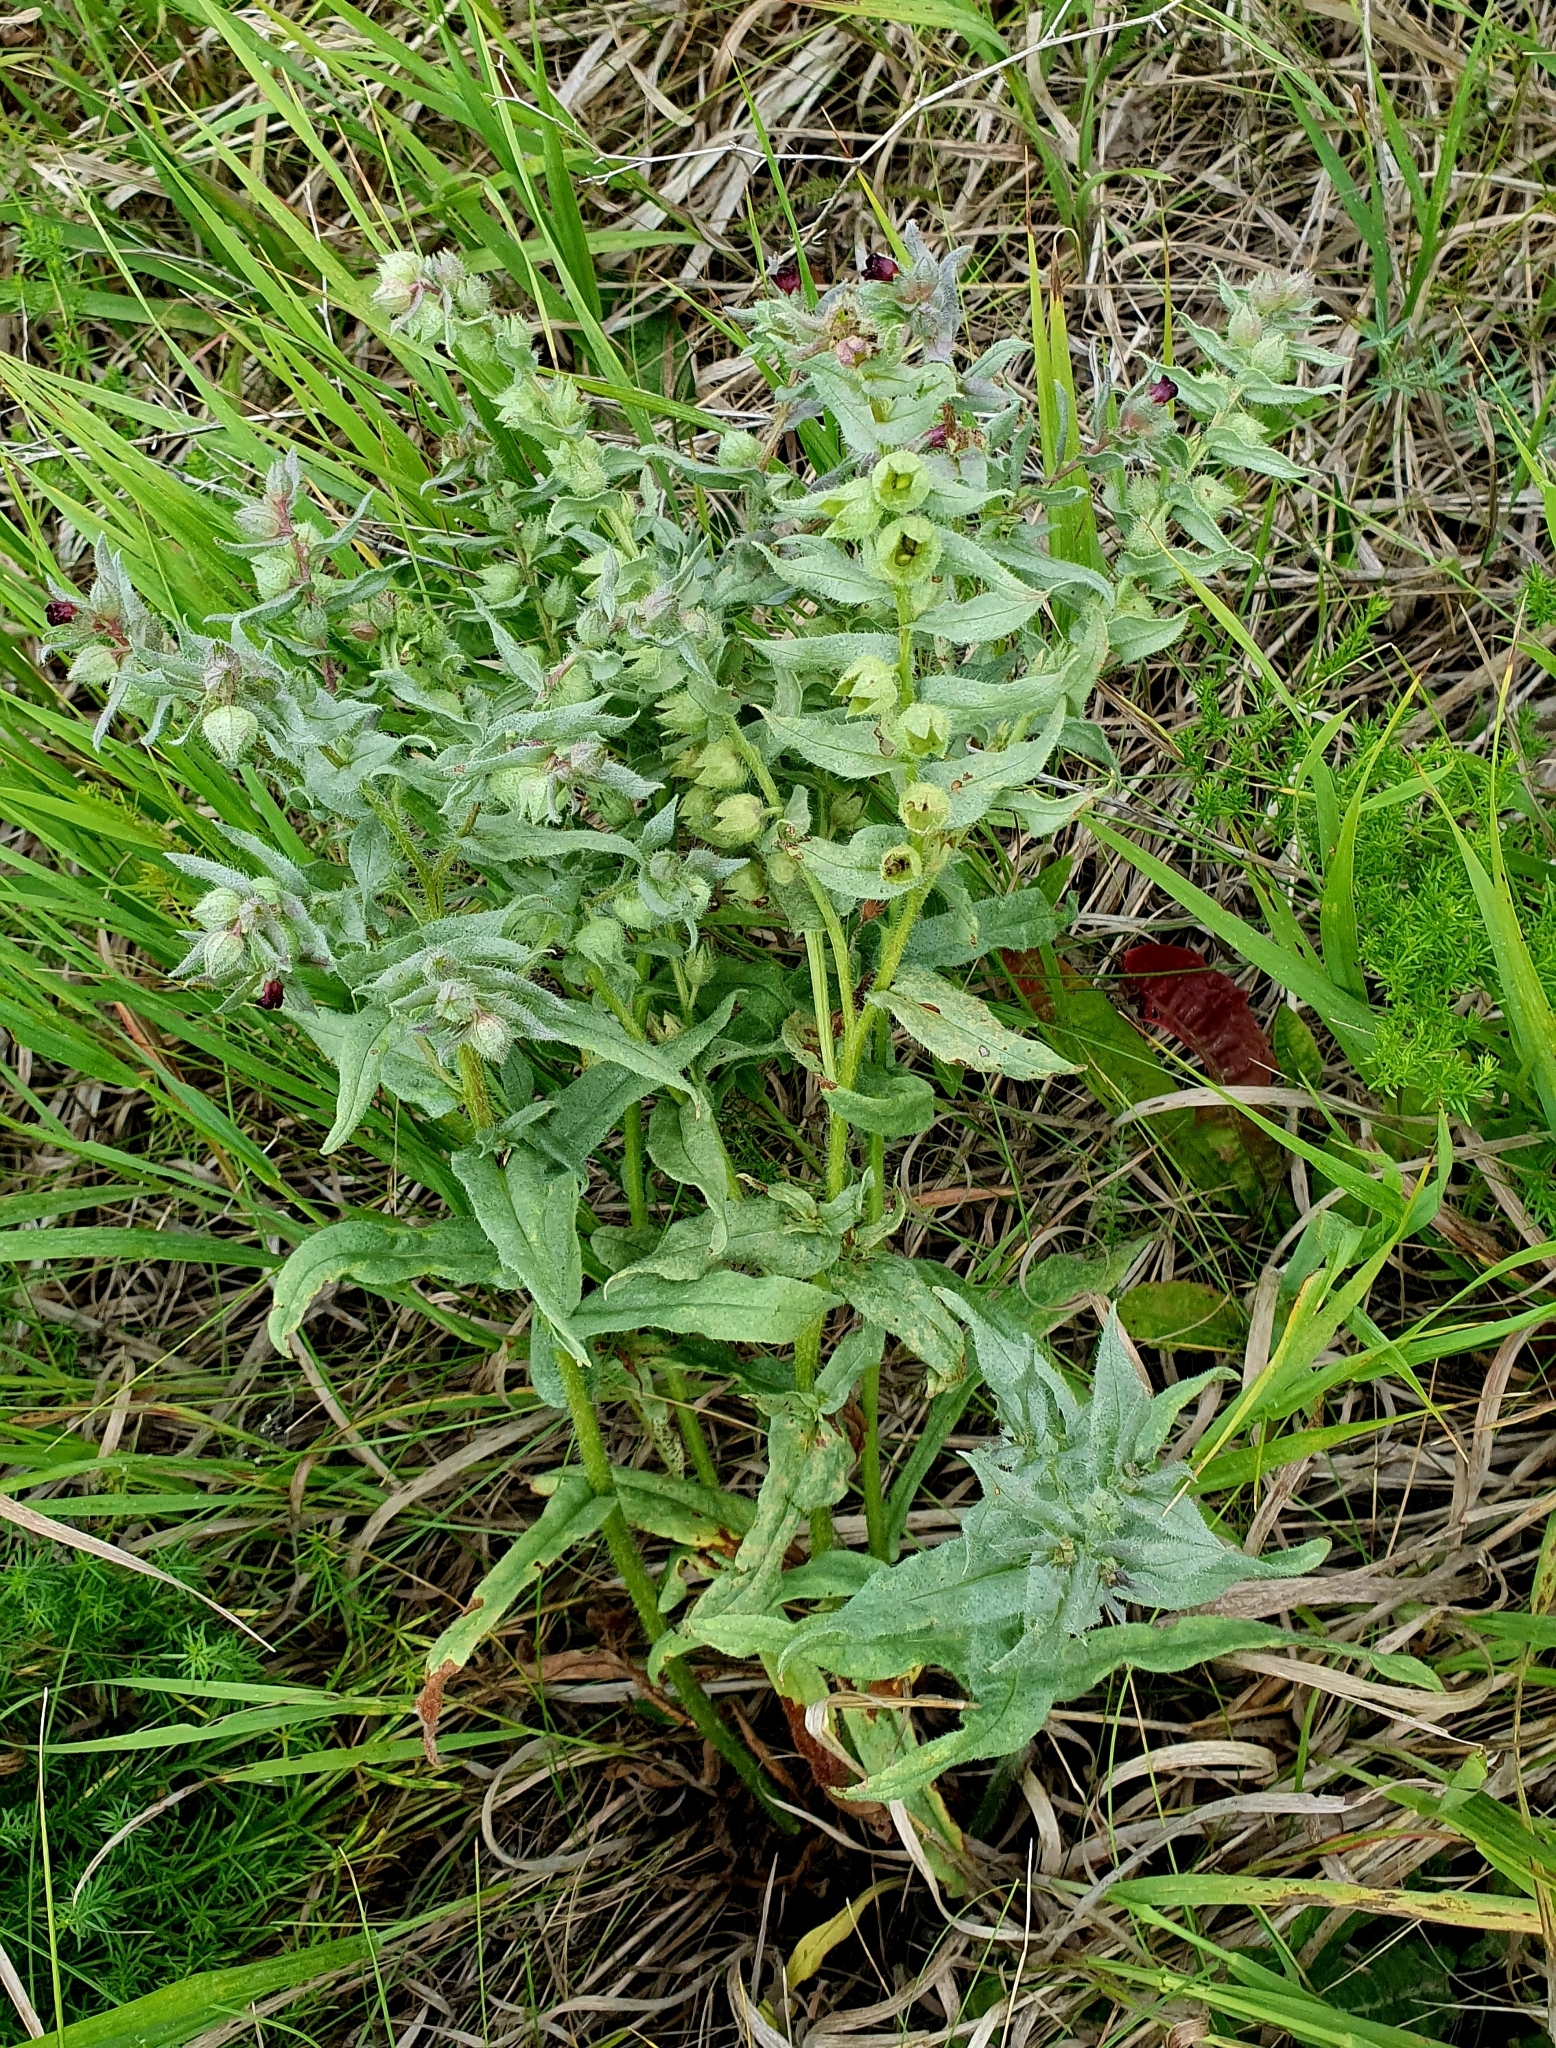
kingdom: Plantae
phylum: Tracheophyta
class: Magnoliopsida
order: Boraginales
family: Boraginaceae
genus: Nonea
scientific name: Nonea pulla
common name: Brown nonea
